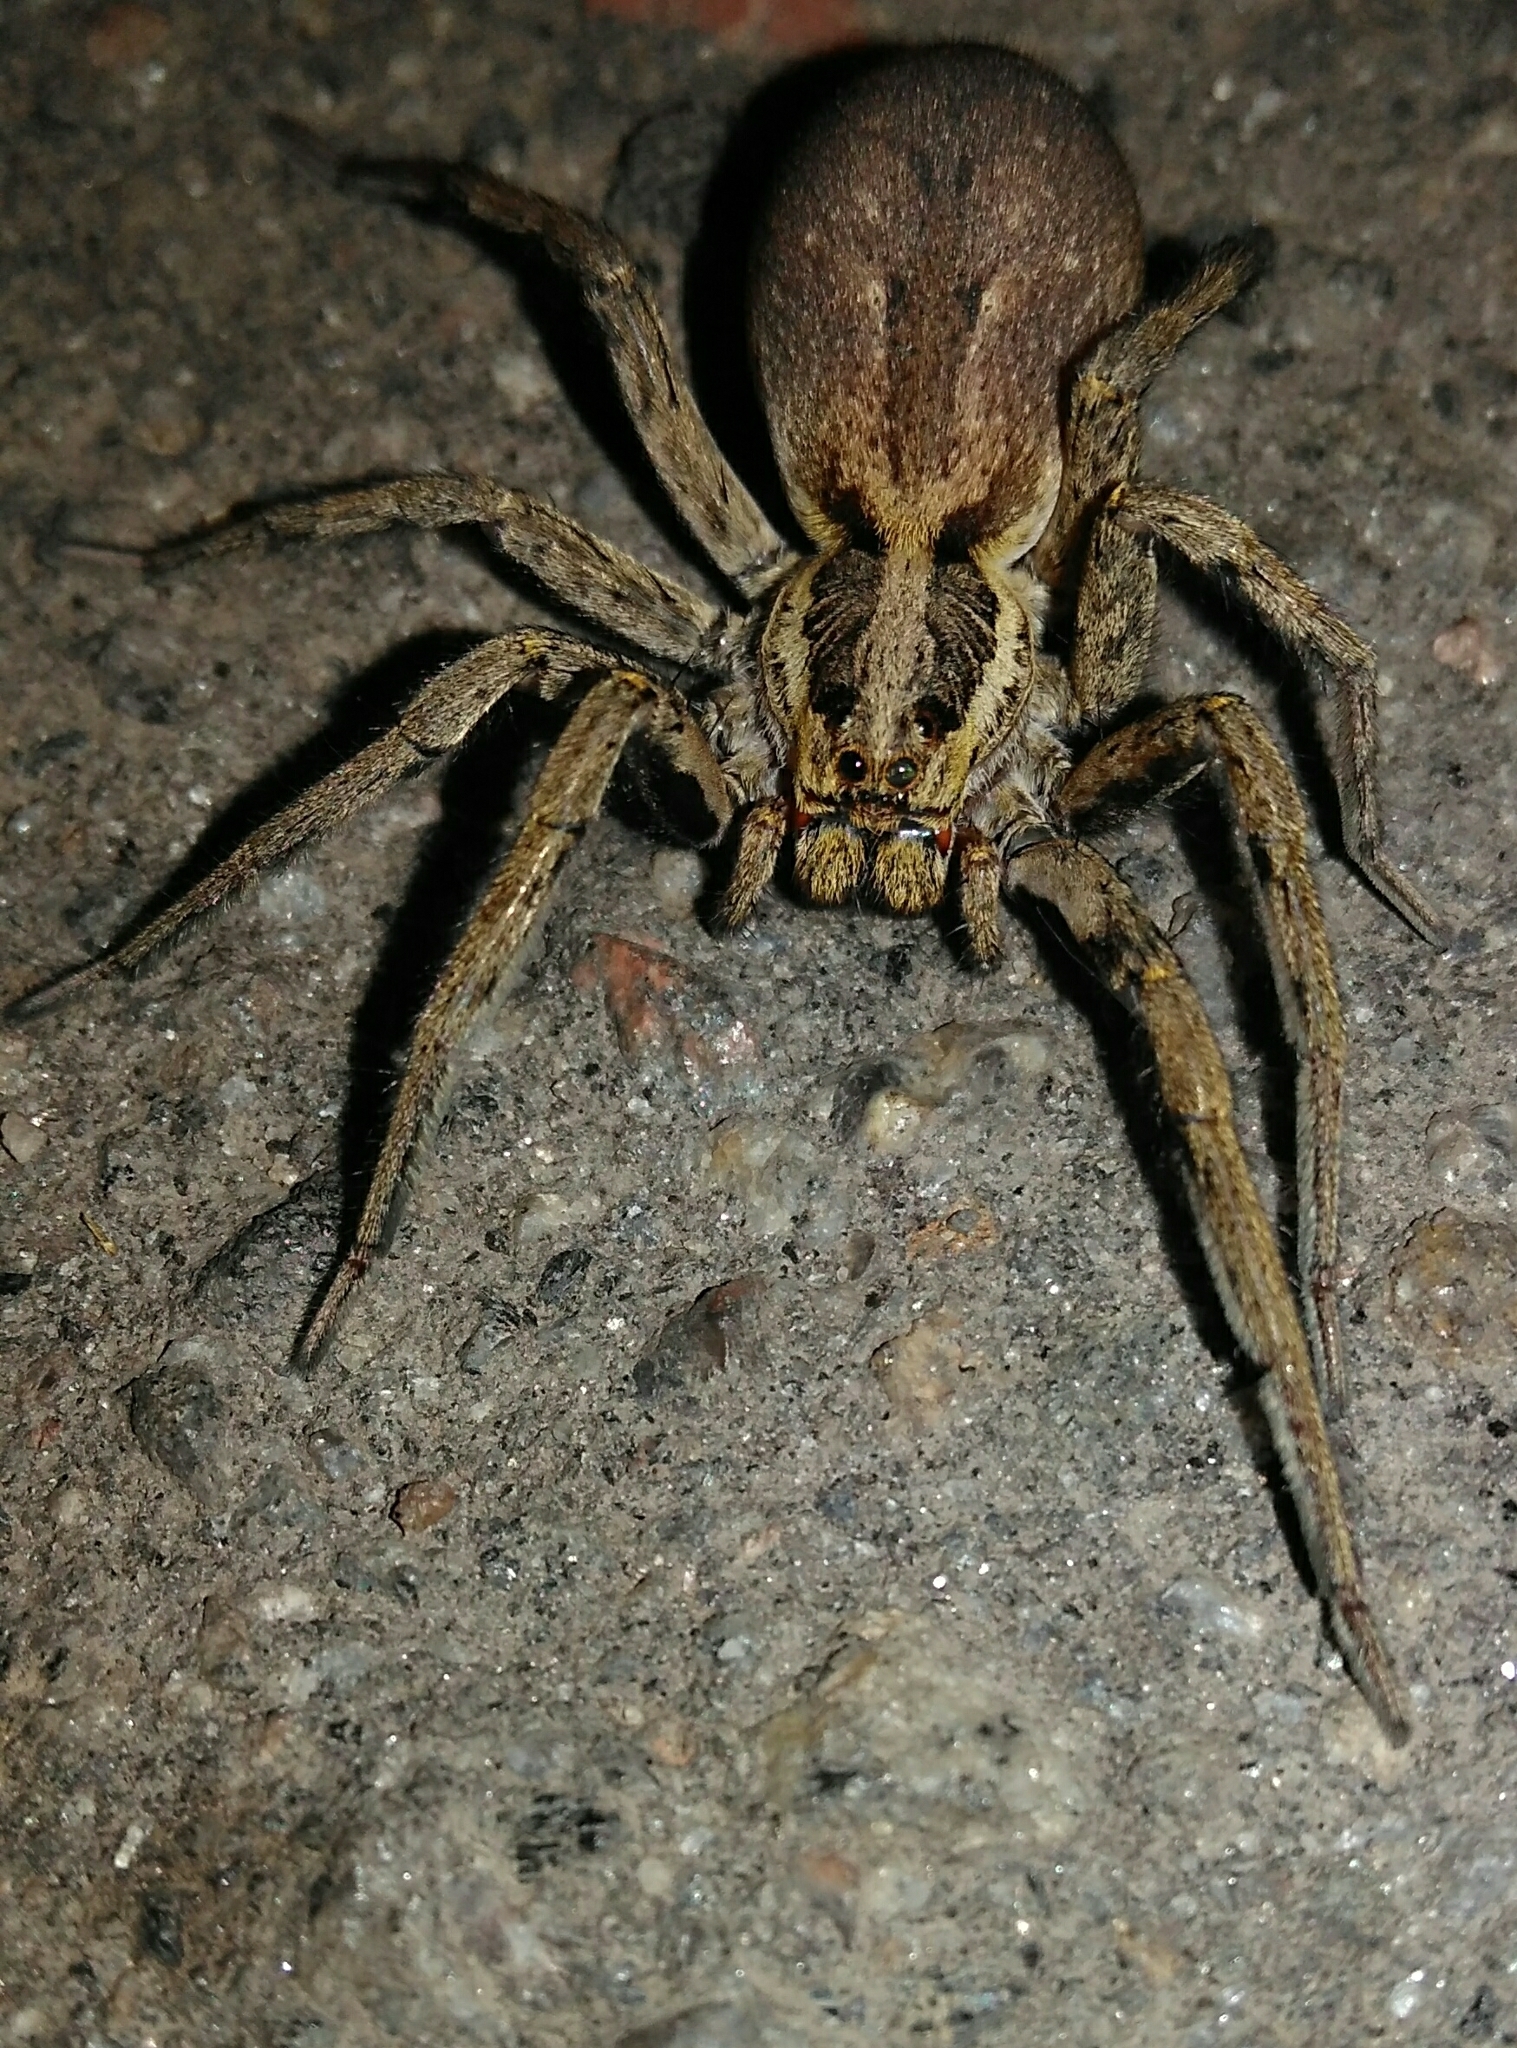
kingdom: Animalia
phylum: Arthropoda
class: Arachnida
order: Araneae
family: Lycosidae
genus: Hogna
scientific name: Hogna radiata
